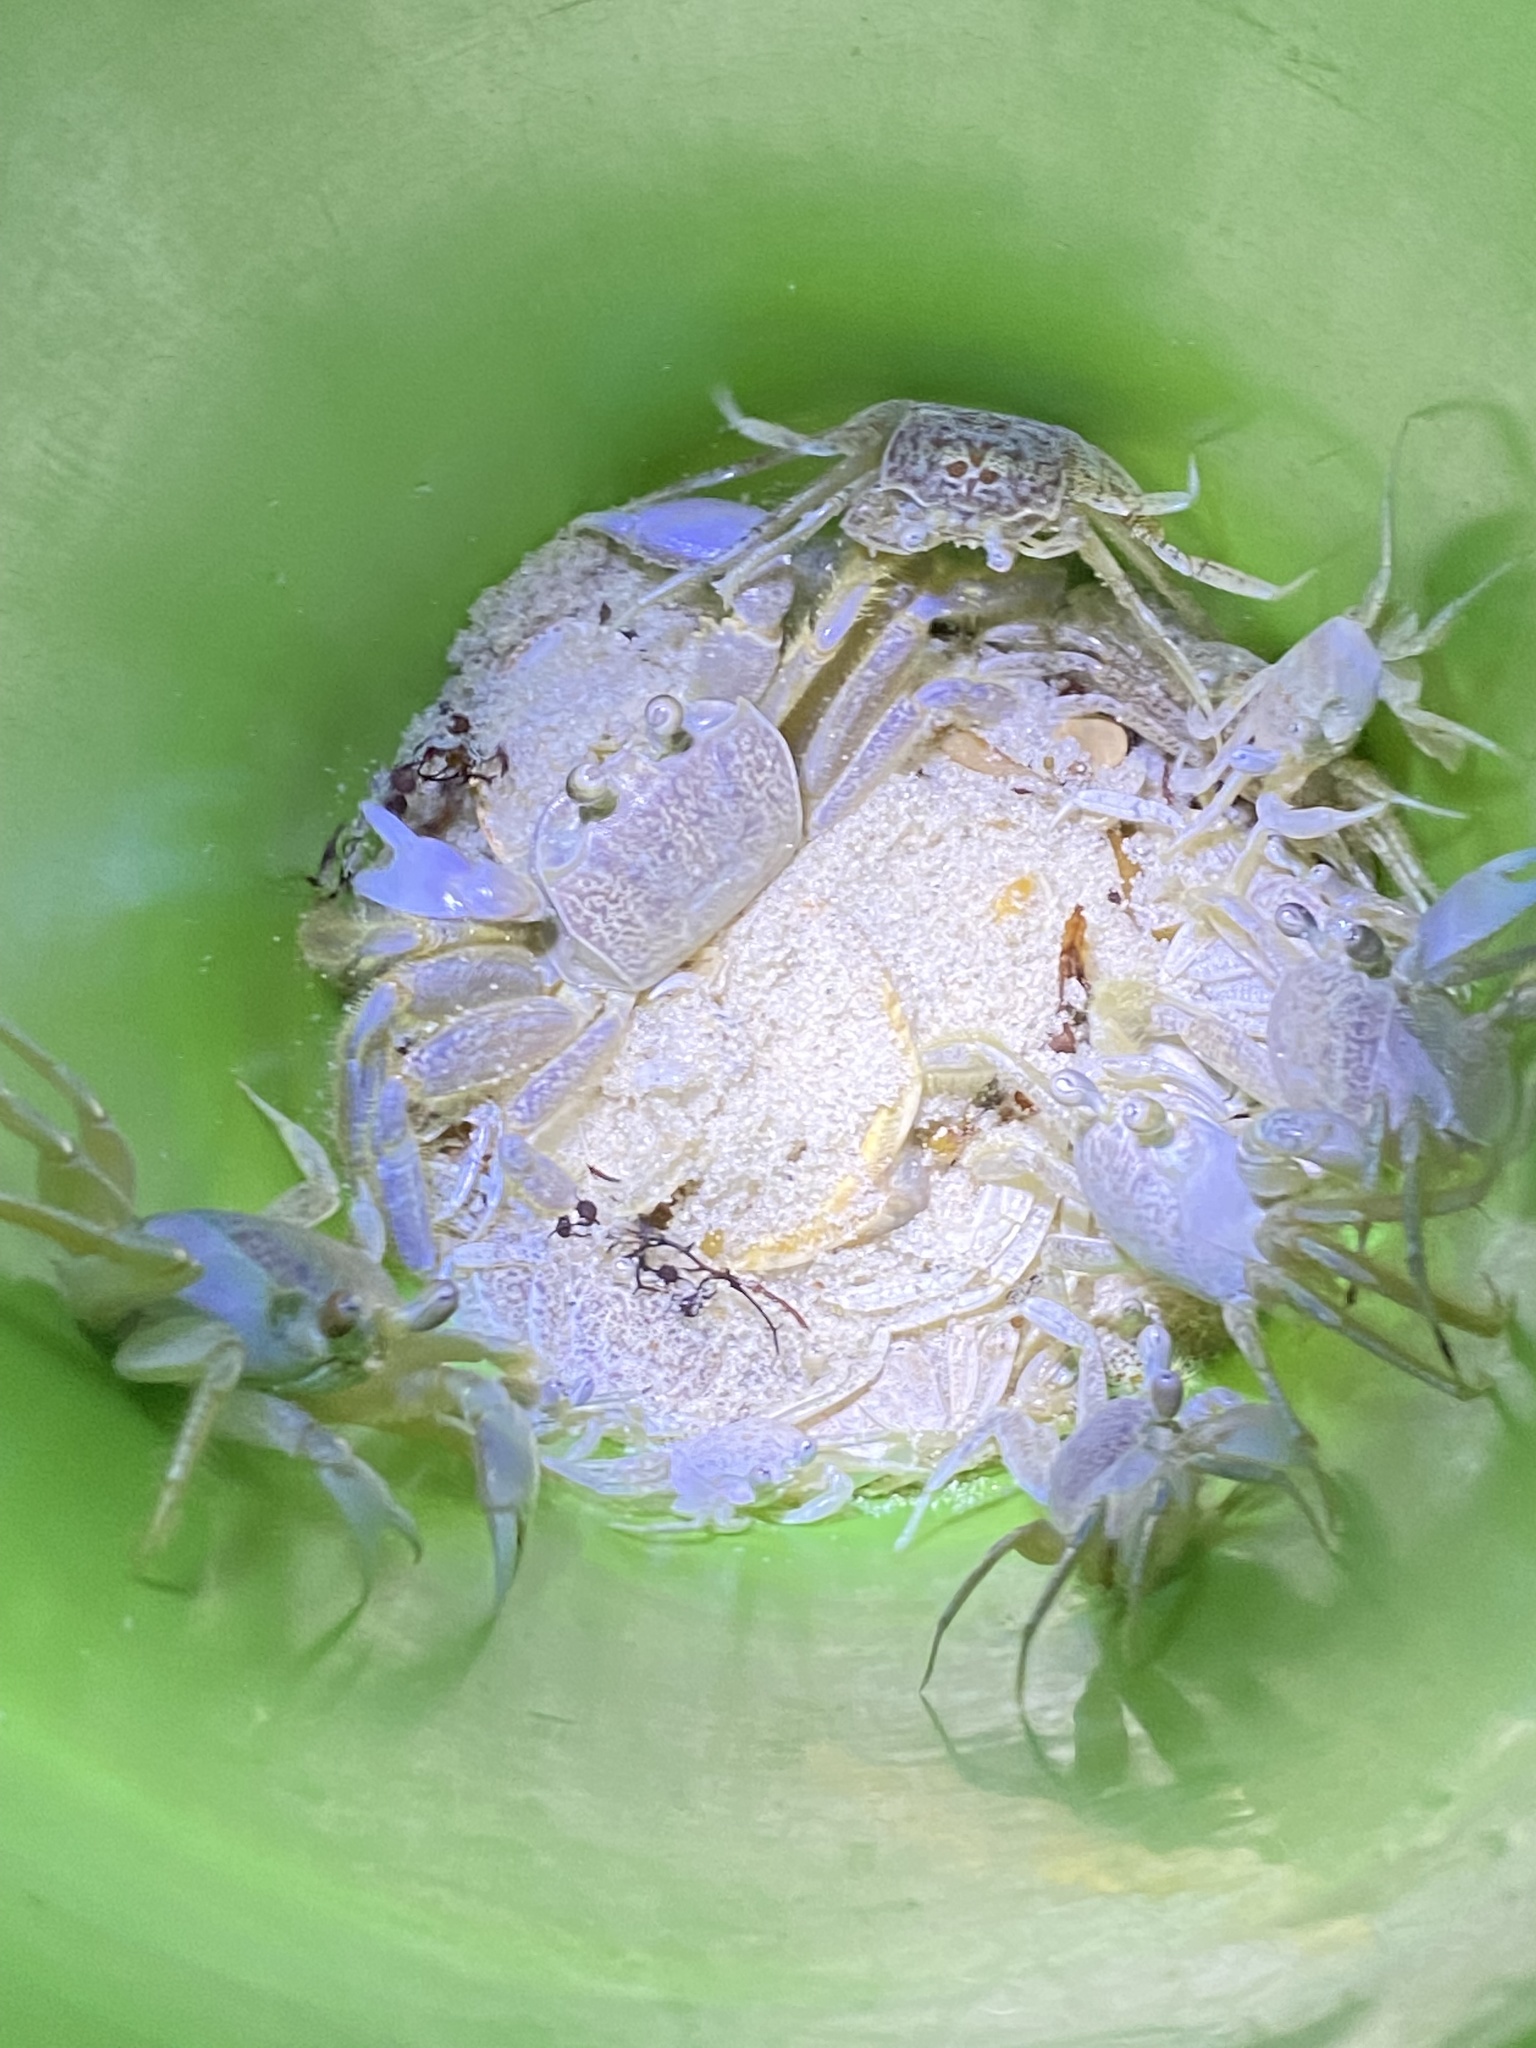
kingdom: Animalia
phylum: Arthropoda
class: Malacostraca
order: Decapoda
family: Ocypodidae
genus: Ocypode
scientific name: Ocypode quadrata
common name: Ghost crab
